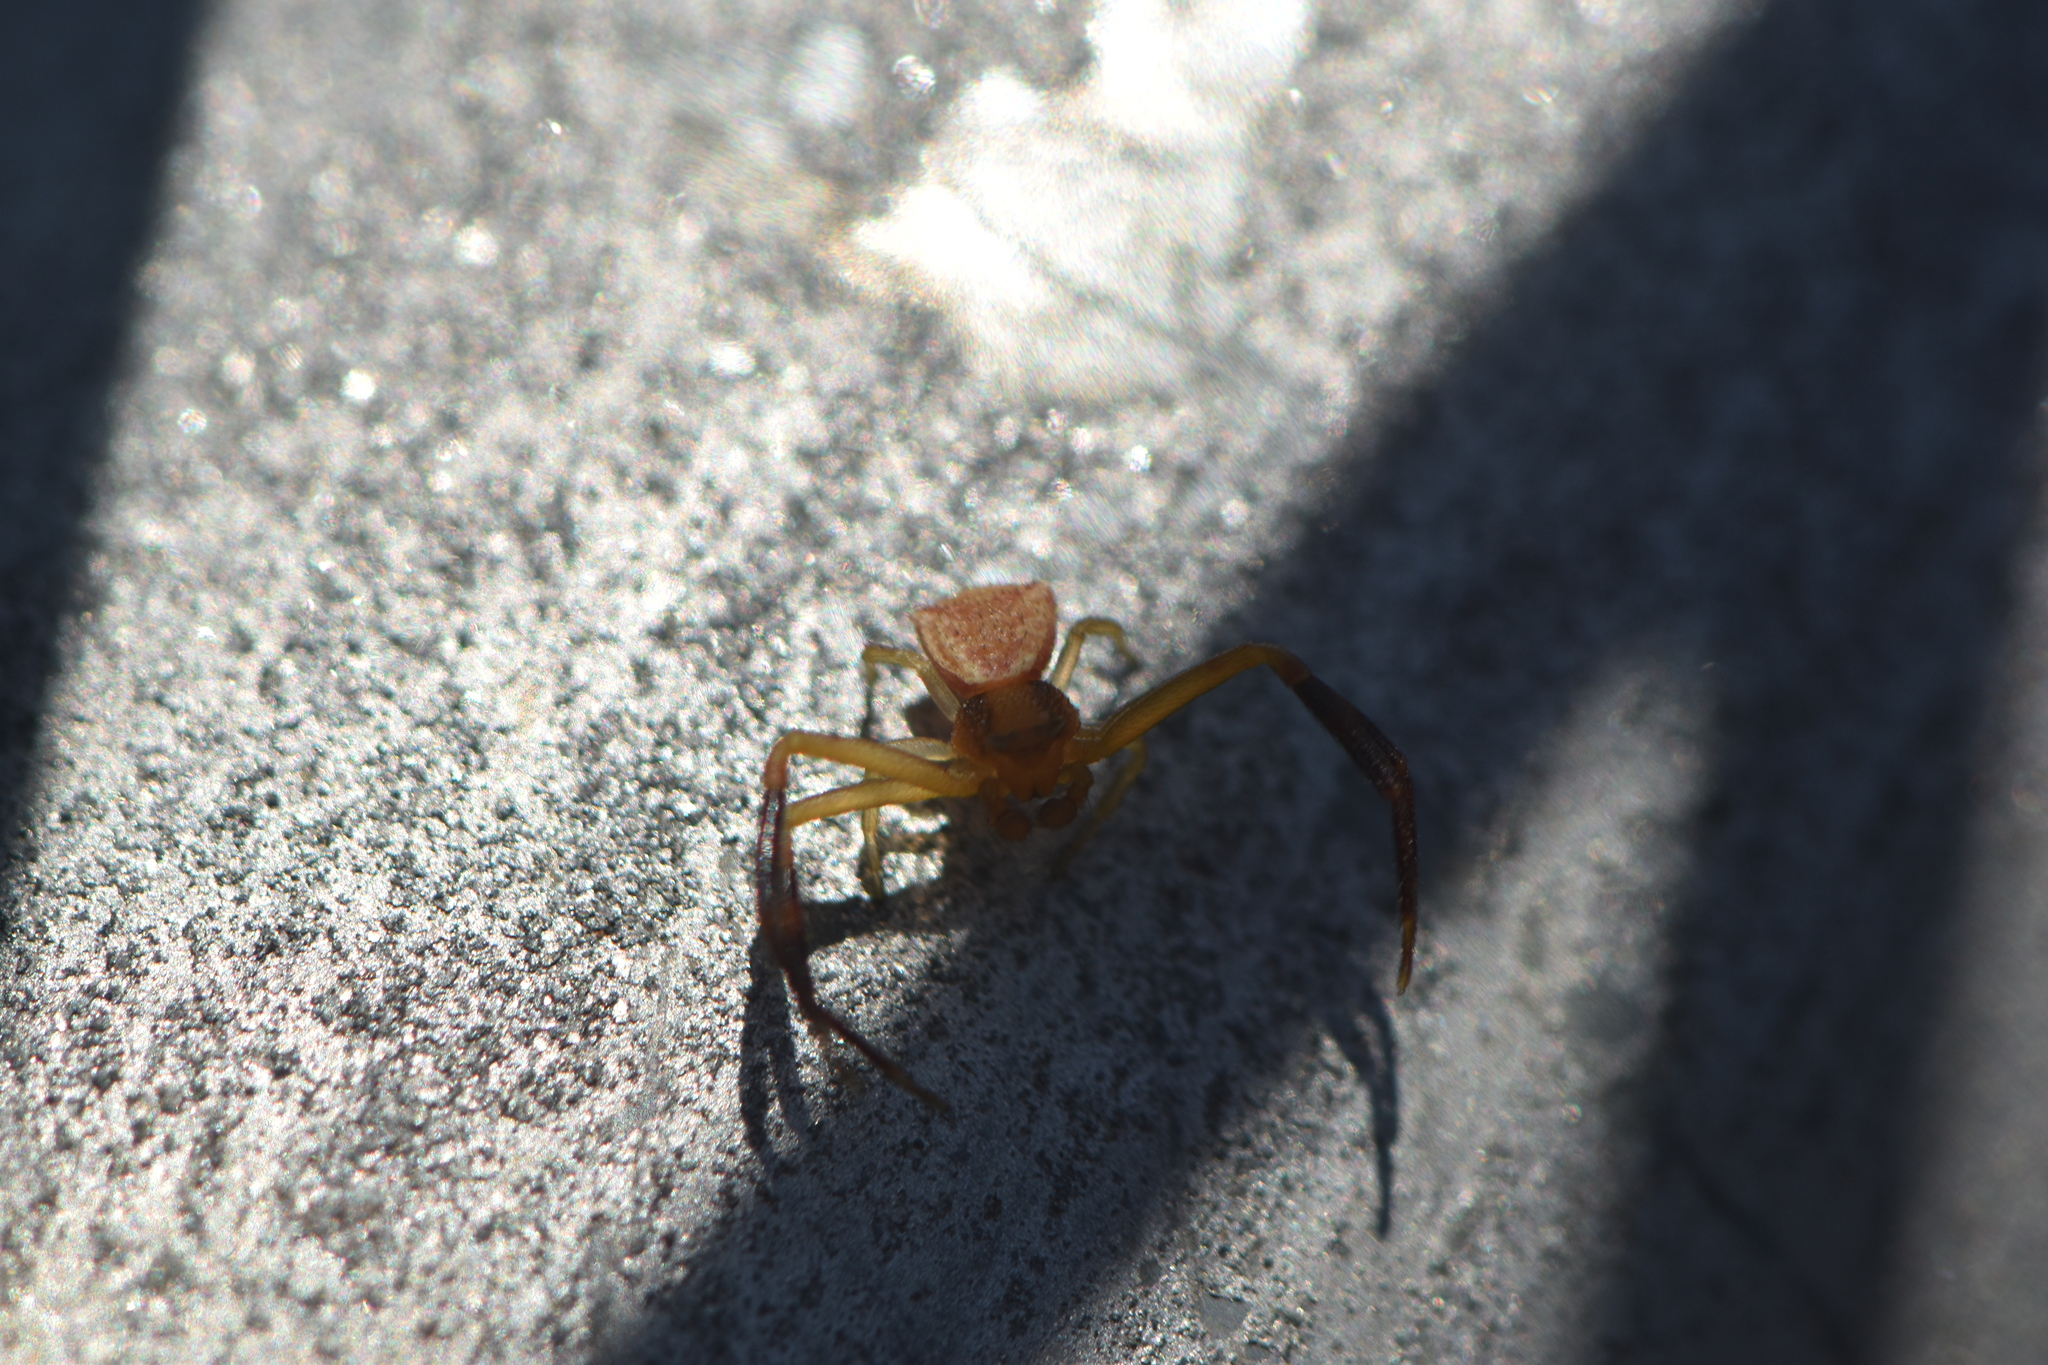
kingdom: Animalia
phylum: Arthropoda
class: Arachnida
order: Araneae
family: Thomisidae
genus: Thomisus
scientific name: Thomisus onustus
